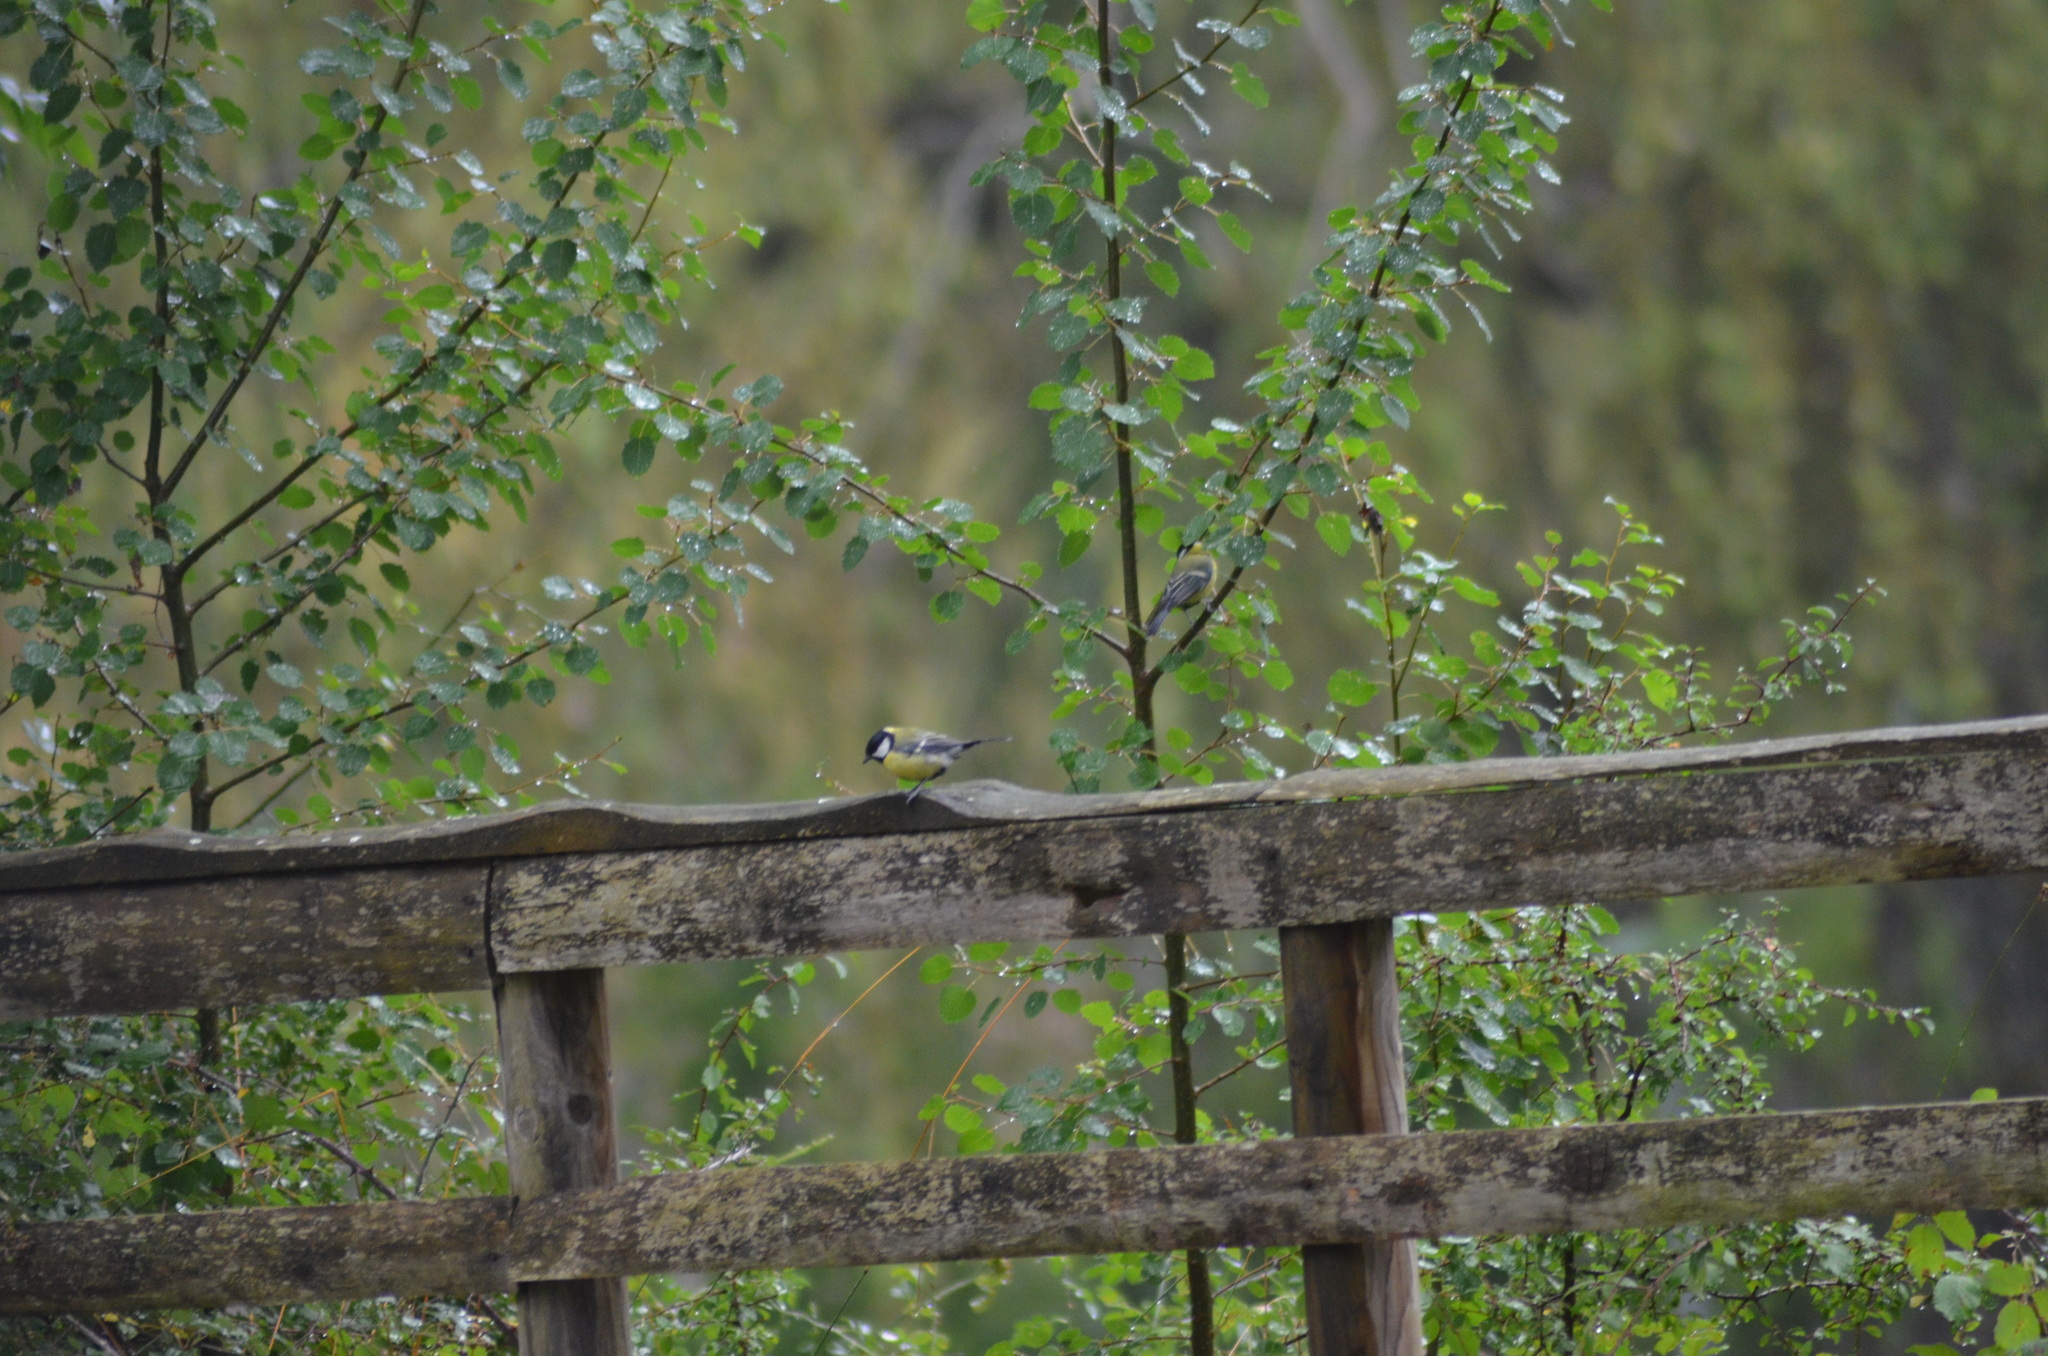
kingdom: Animalia
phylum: Chordata
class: Aves
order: Passeriformes
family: Paridae
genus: Parus
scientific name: Parus major
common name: Great tit
